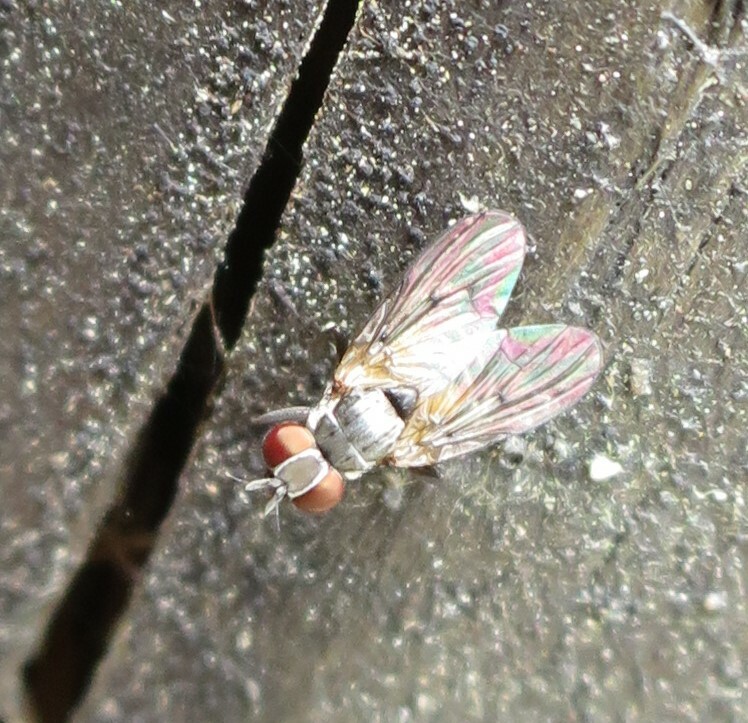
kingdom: Animalia
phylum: Arthropoda
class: Insecta
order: Diptera
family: Muscidae
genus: Spilogona
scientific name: Spilogona flaviventris
